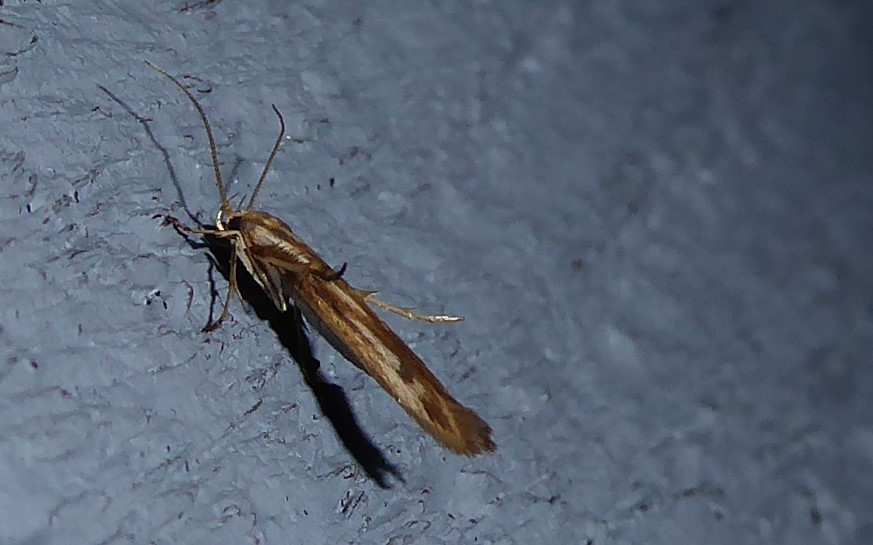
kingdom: Animalia
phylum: Arthropoda
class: Insecta
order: Lepidoptera
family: Stathmopodidae
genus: Stathmopoda
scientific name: Stathmopoda aposema
